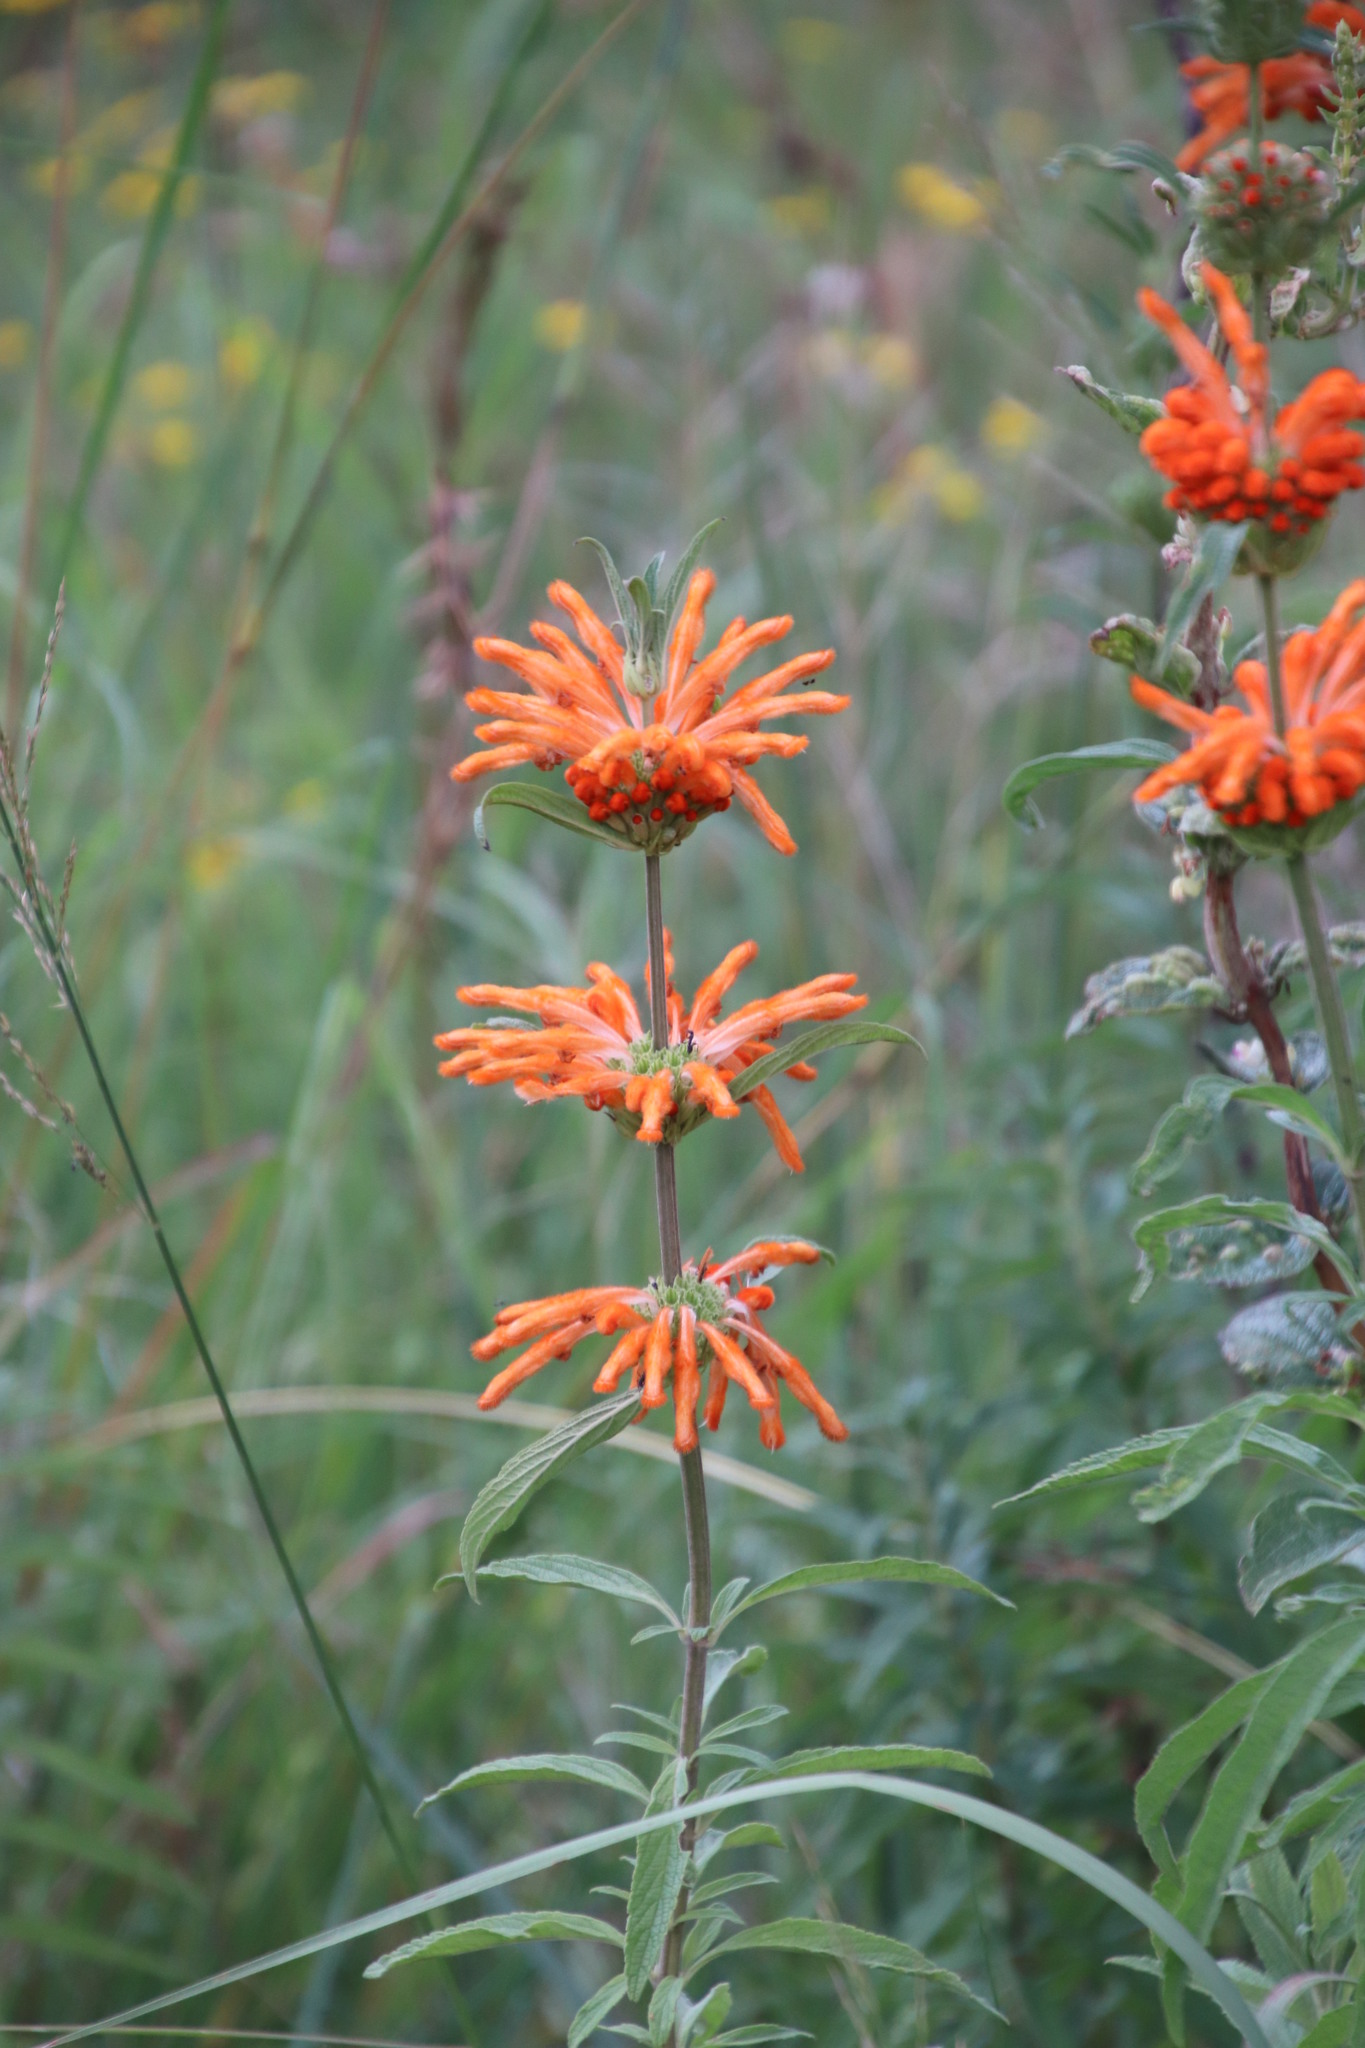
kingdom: Plantae
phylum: Tracheophyta
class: Magnoliopsida
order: Lamiales
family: Lamiaceae
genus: Leonotis
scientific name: Leonotis leonurus
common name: Lion's ear
